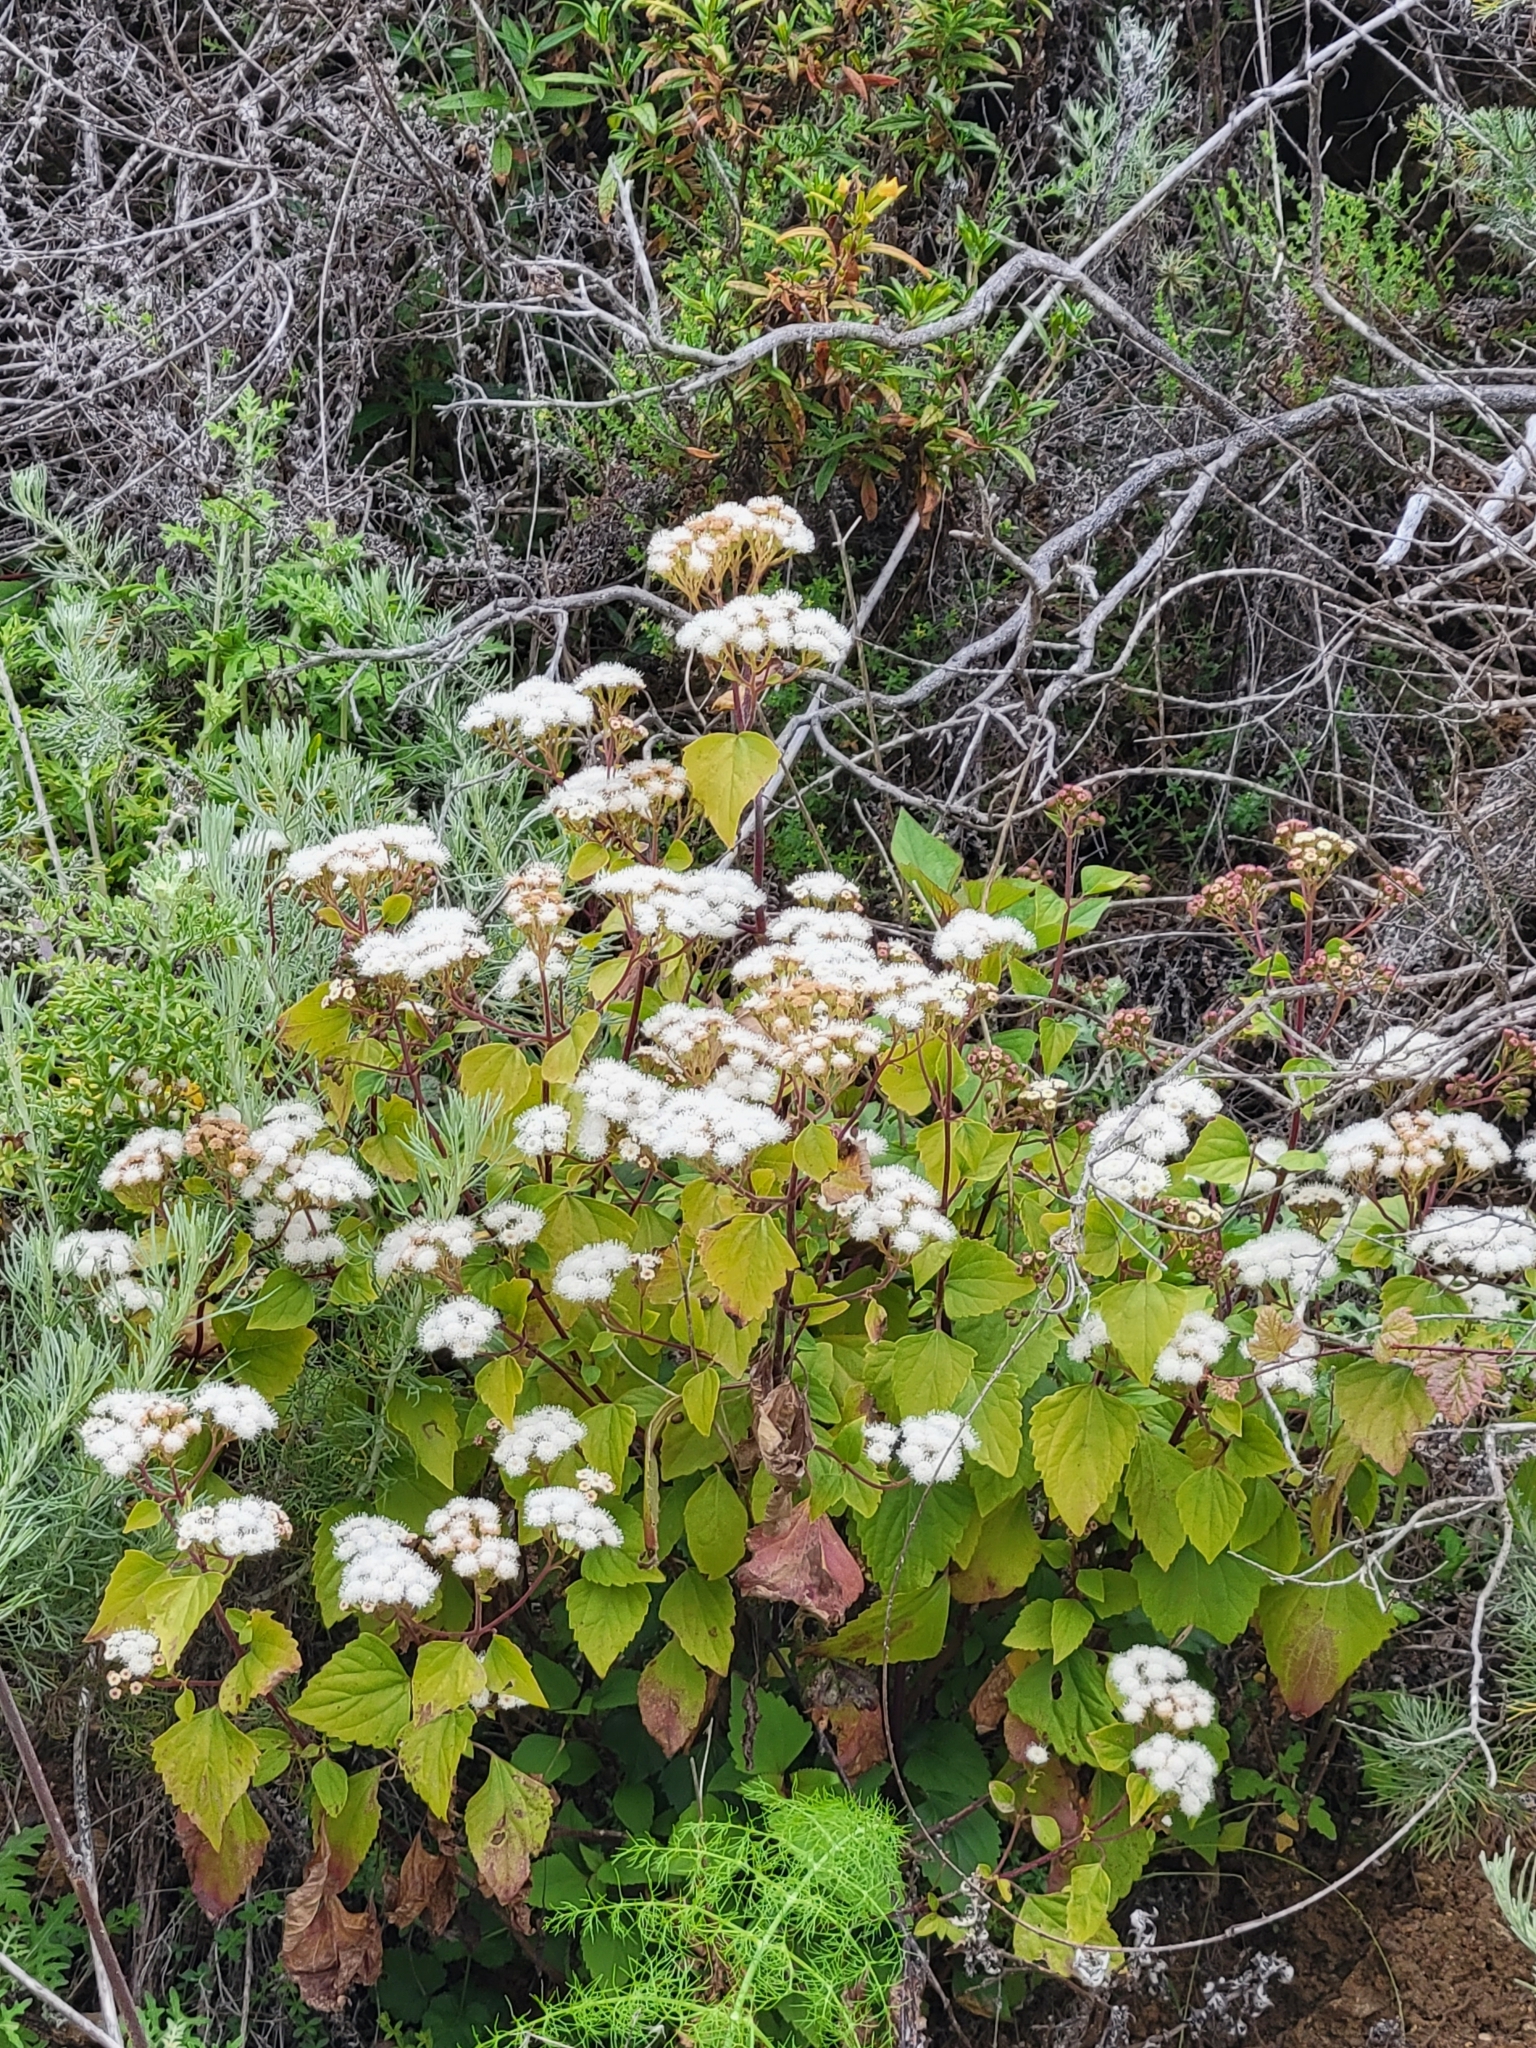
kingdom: Plantae
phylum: Tracheophyta
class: Magnoliopsida
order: Asterales
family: Asteraceae
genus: Ageratina
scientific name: Ageratina adenophora
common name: Sticky snakeroot
